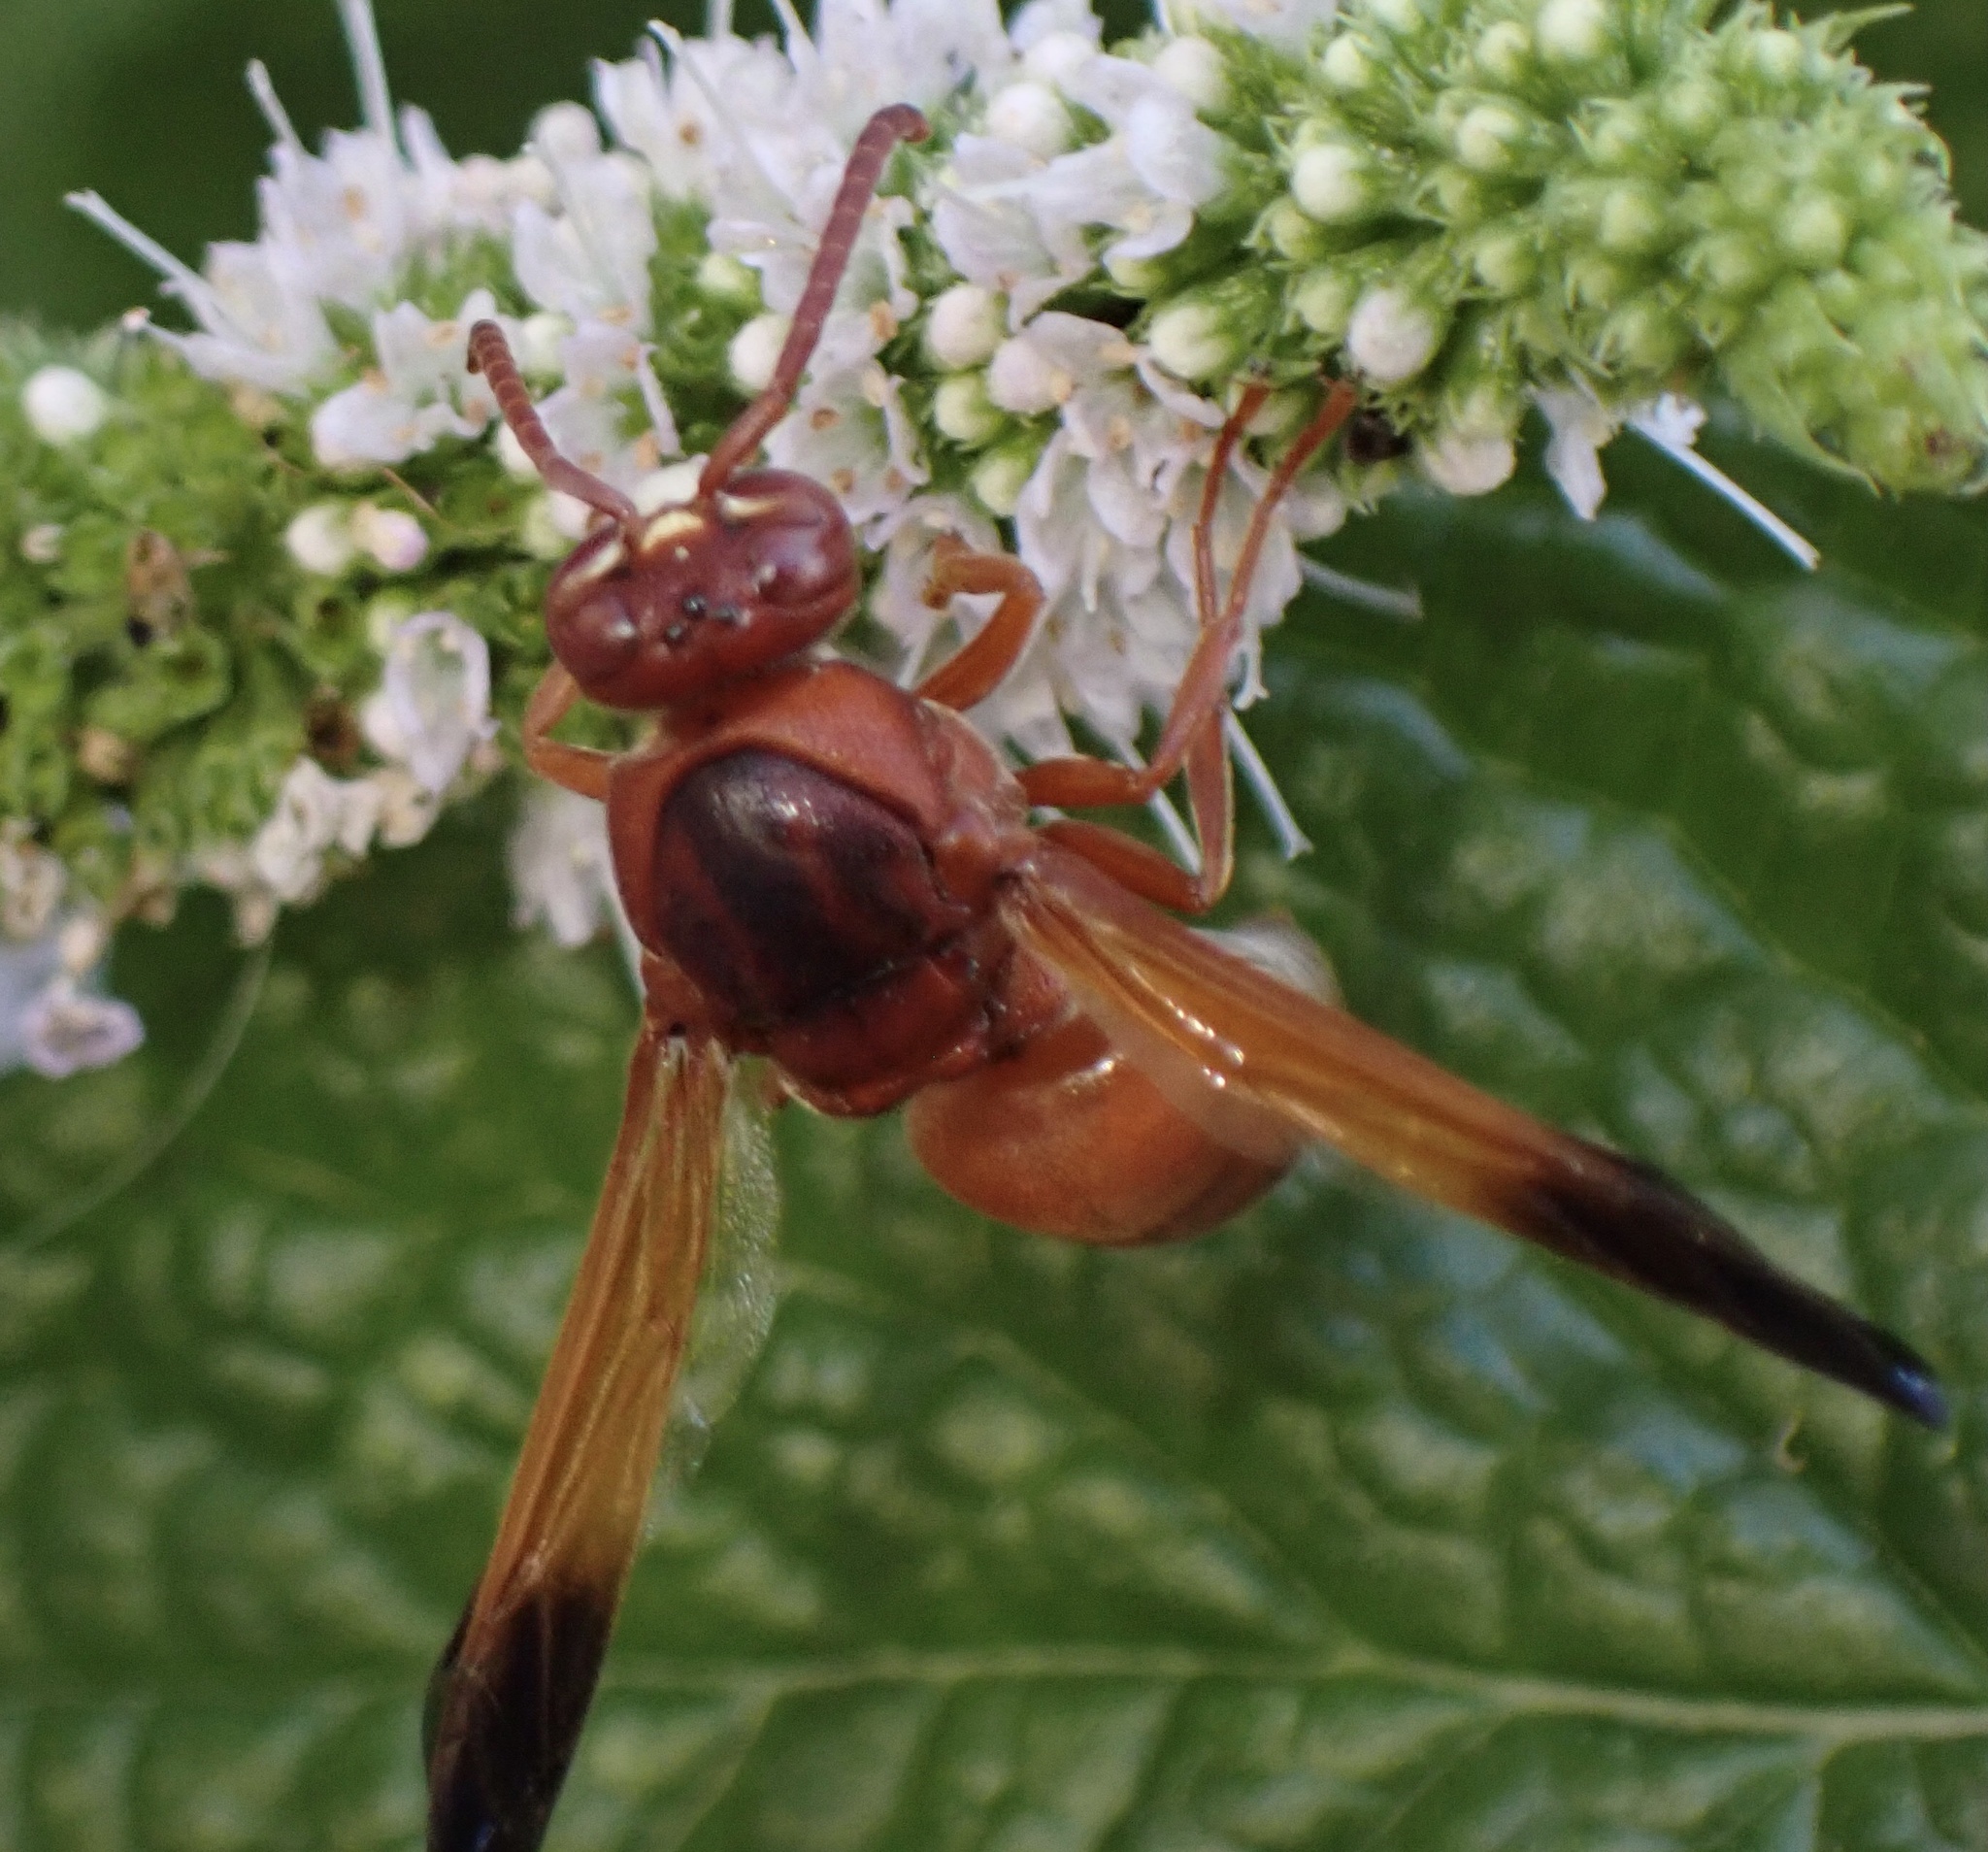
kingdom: Animalia
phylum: Arthropoda
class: Insecta
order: Hymenoptera
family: Eumenidae
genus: Rhynchium
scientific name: Rhynchium oculatum
